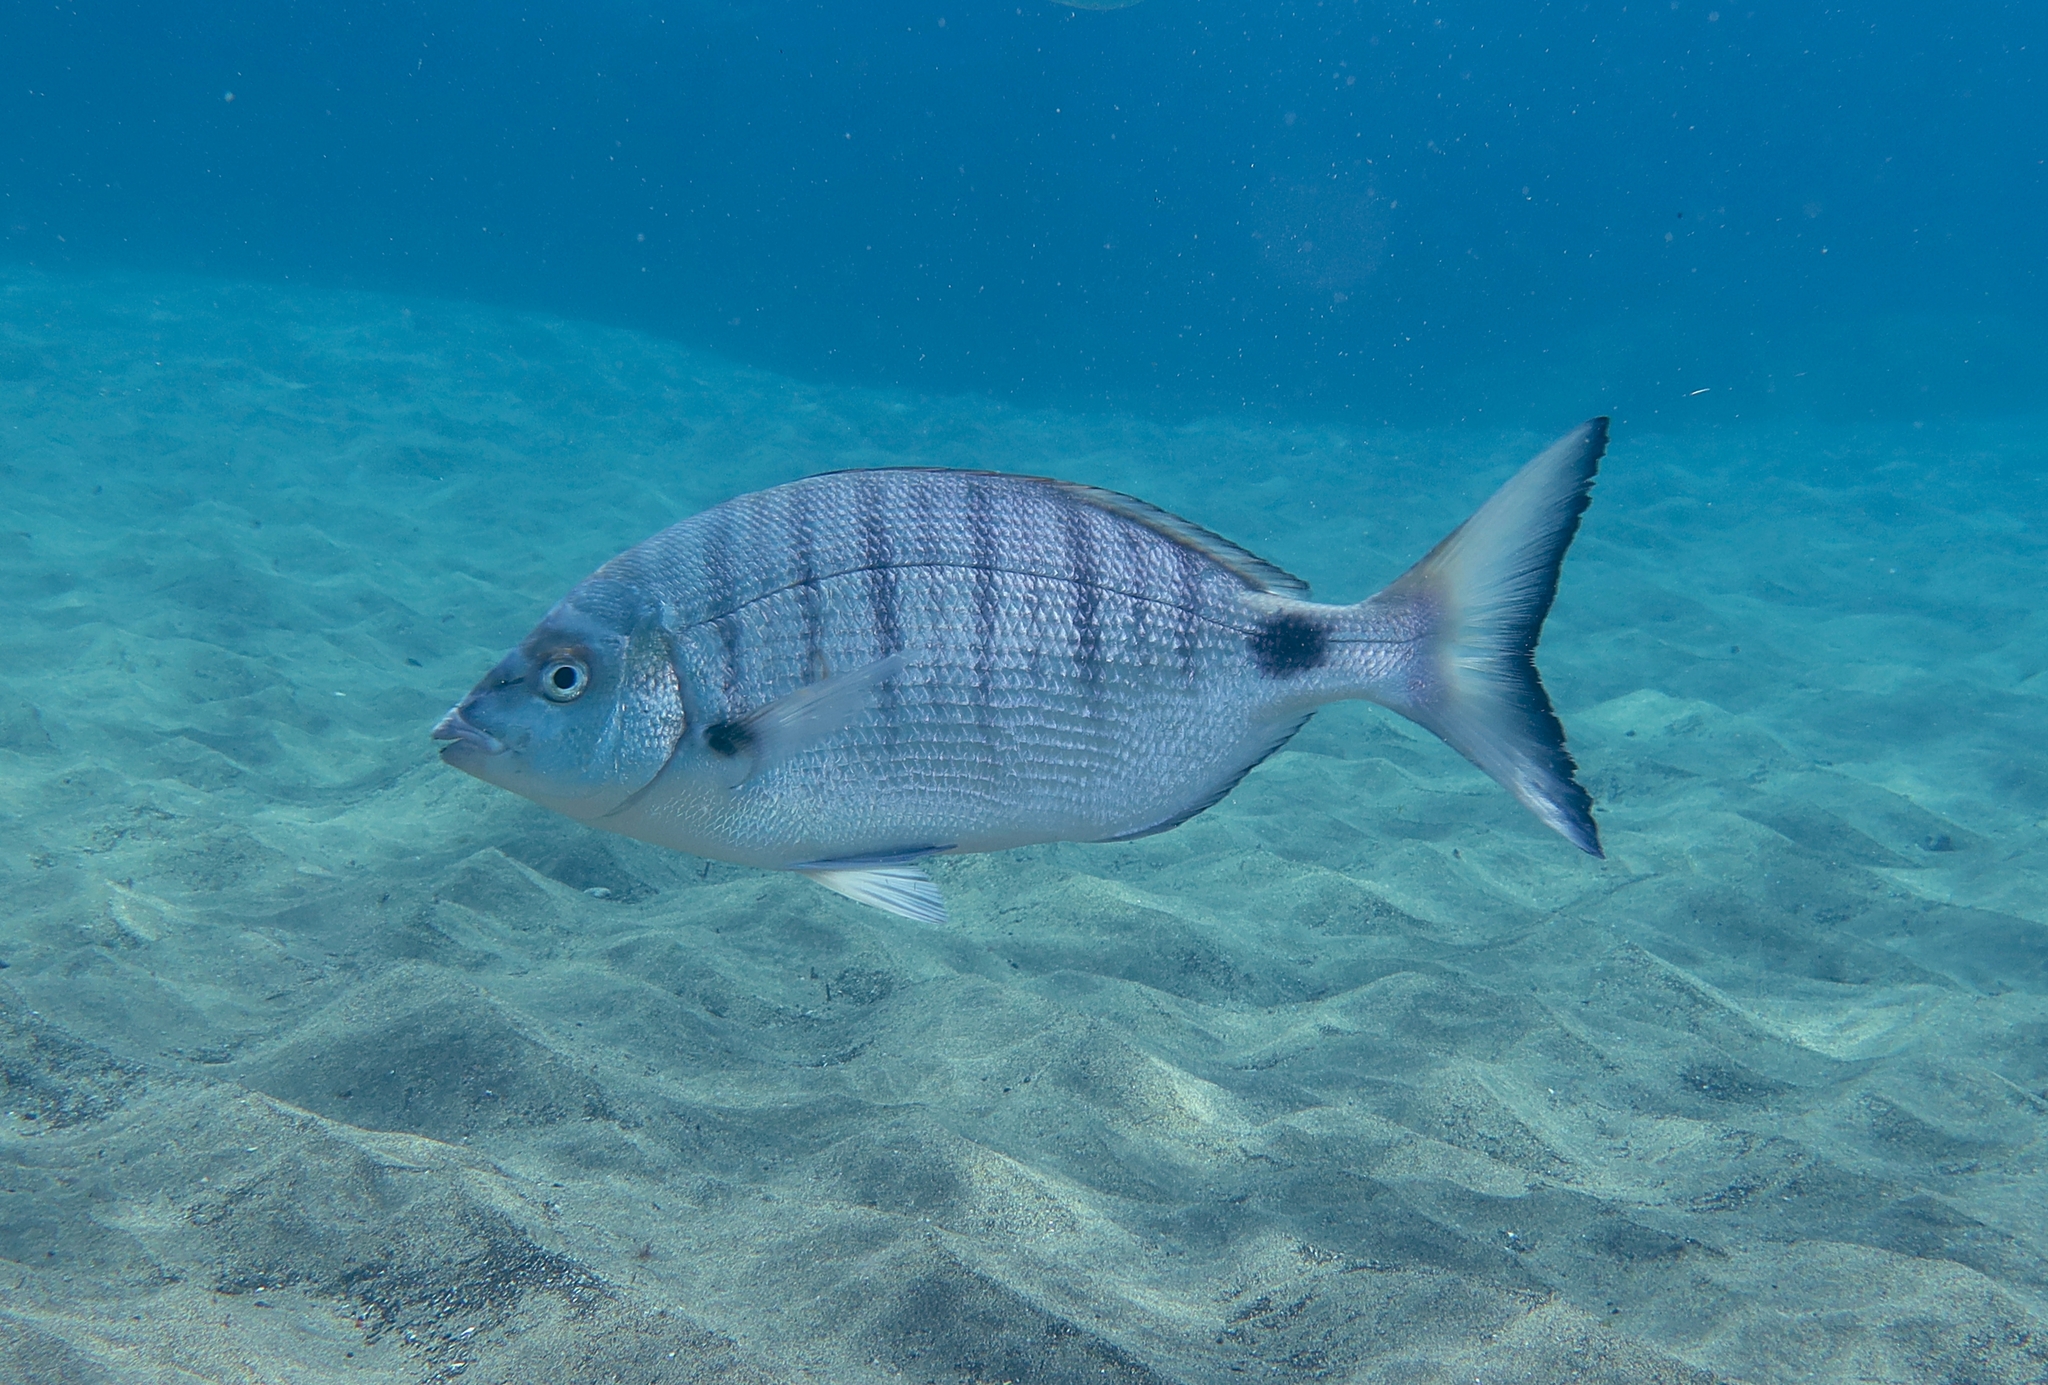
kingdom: Animalia
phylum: Chordata
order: Perciformes
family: Sparidae
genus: Diplodus
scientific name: Diplodus puntazzo
